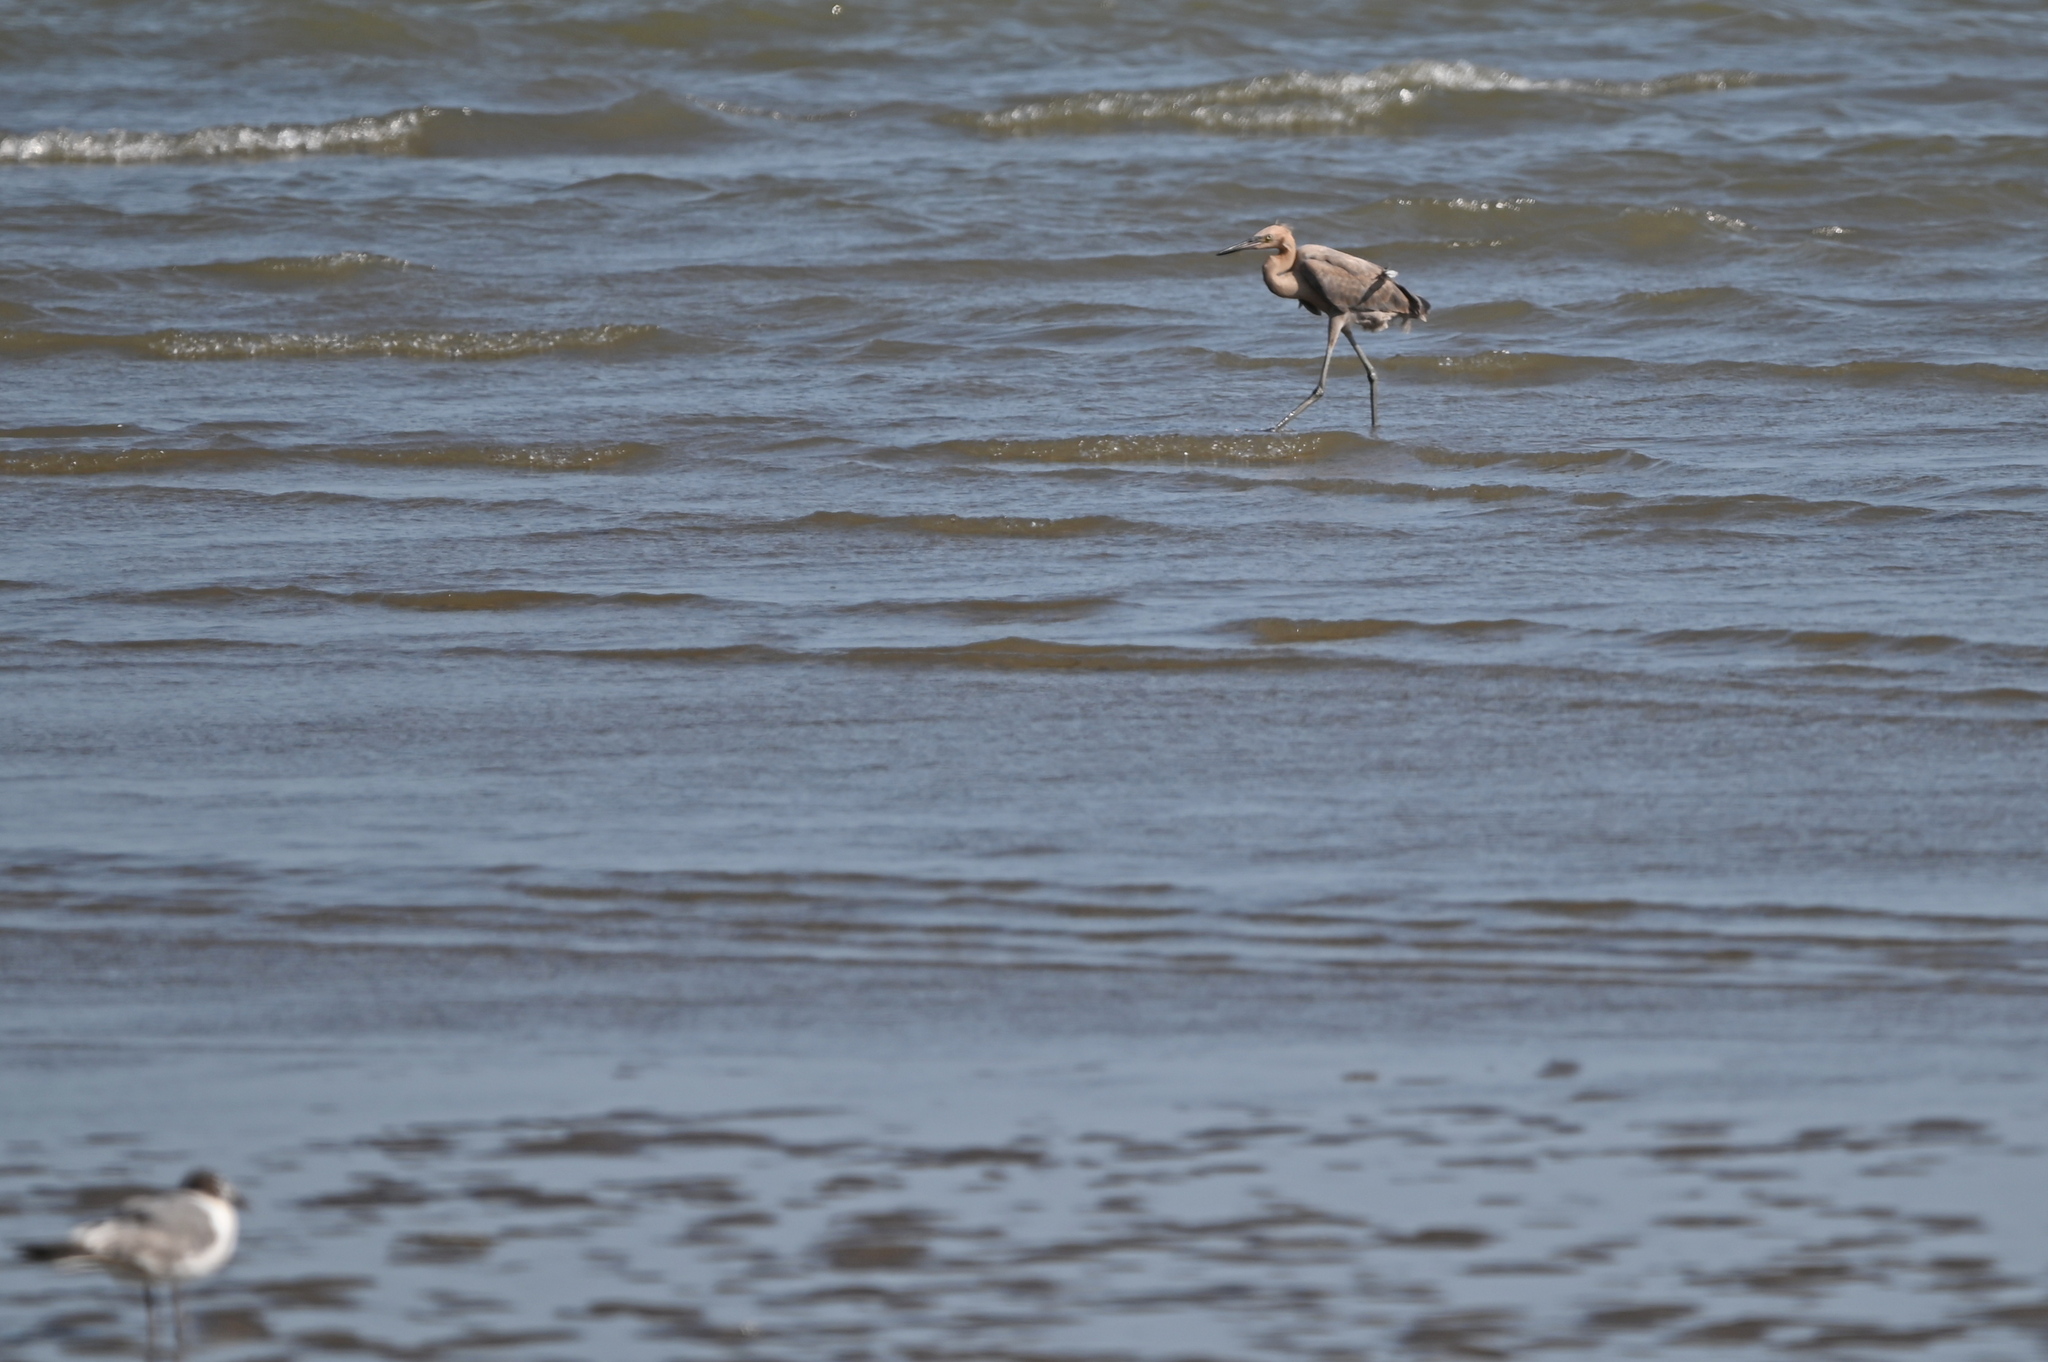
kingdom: Animalia
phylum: Chordata
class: Aves
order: Pelecaniformes
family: Ardeidae
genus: Egretta
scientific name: Egretta rufescens
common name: Reddish egret
